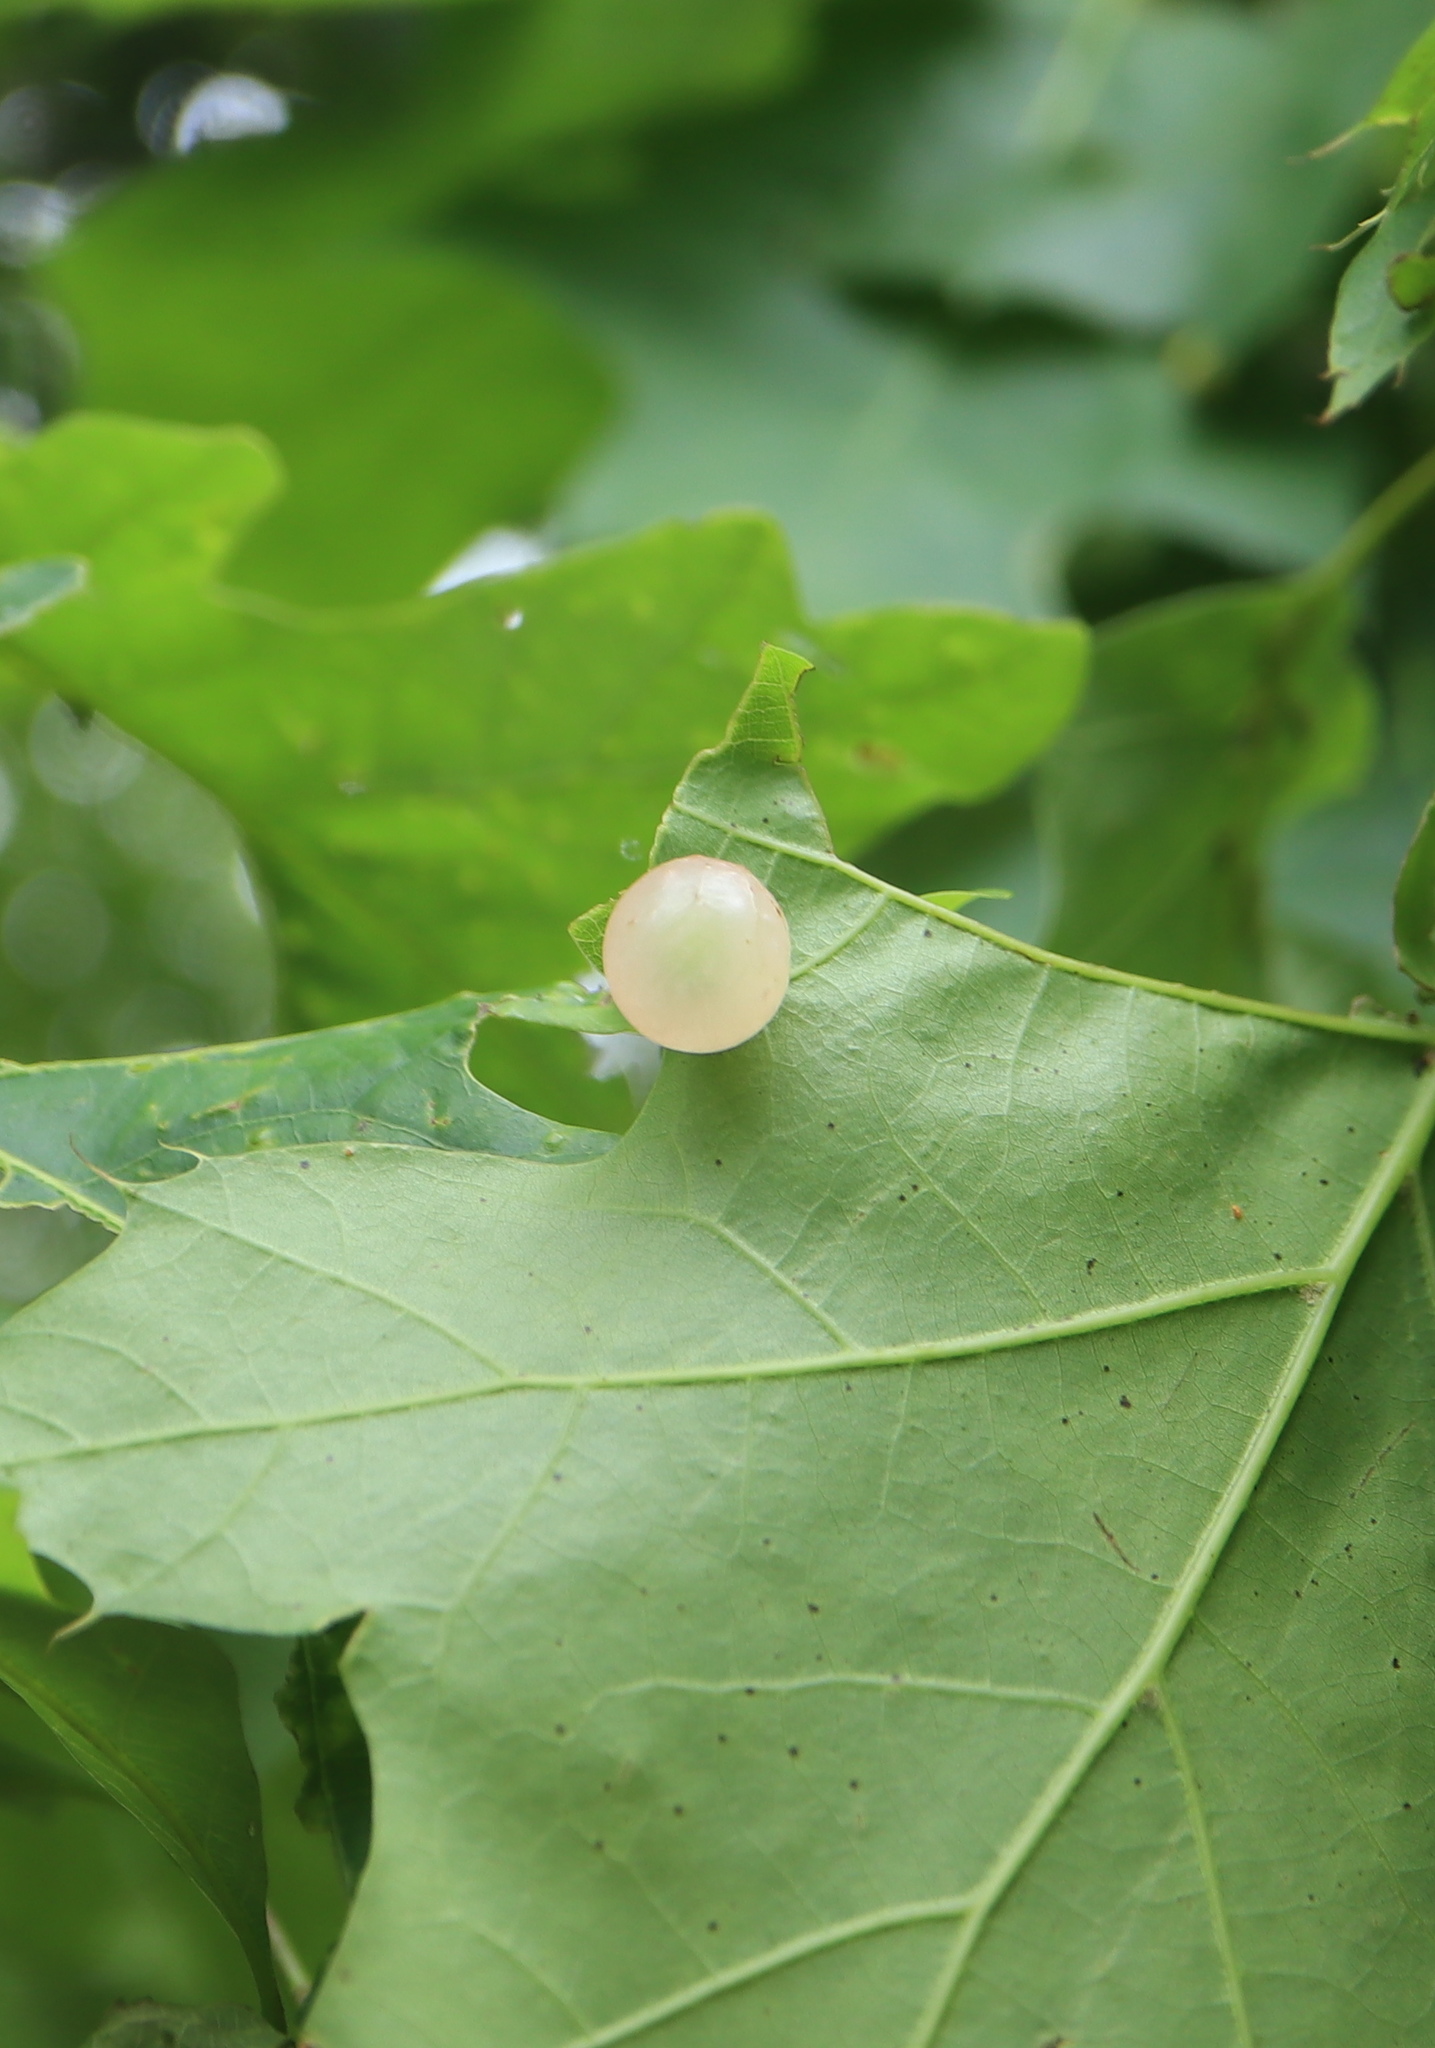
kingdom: Animalia
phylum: Arthropoda
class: Insecta
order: Hymenoptera
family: Cynipidae
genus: Amphibolips
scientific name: Amphibolips
